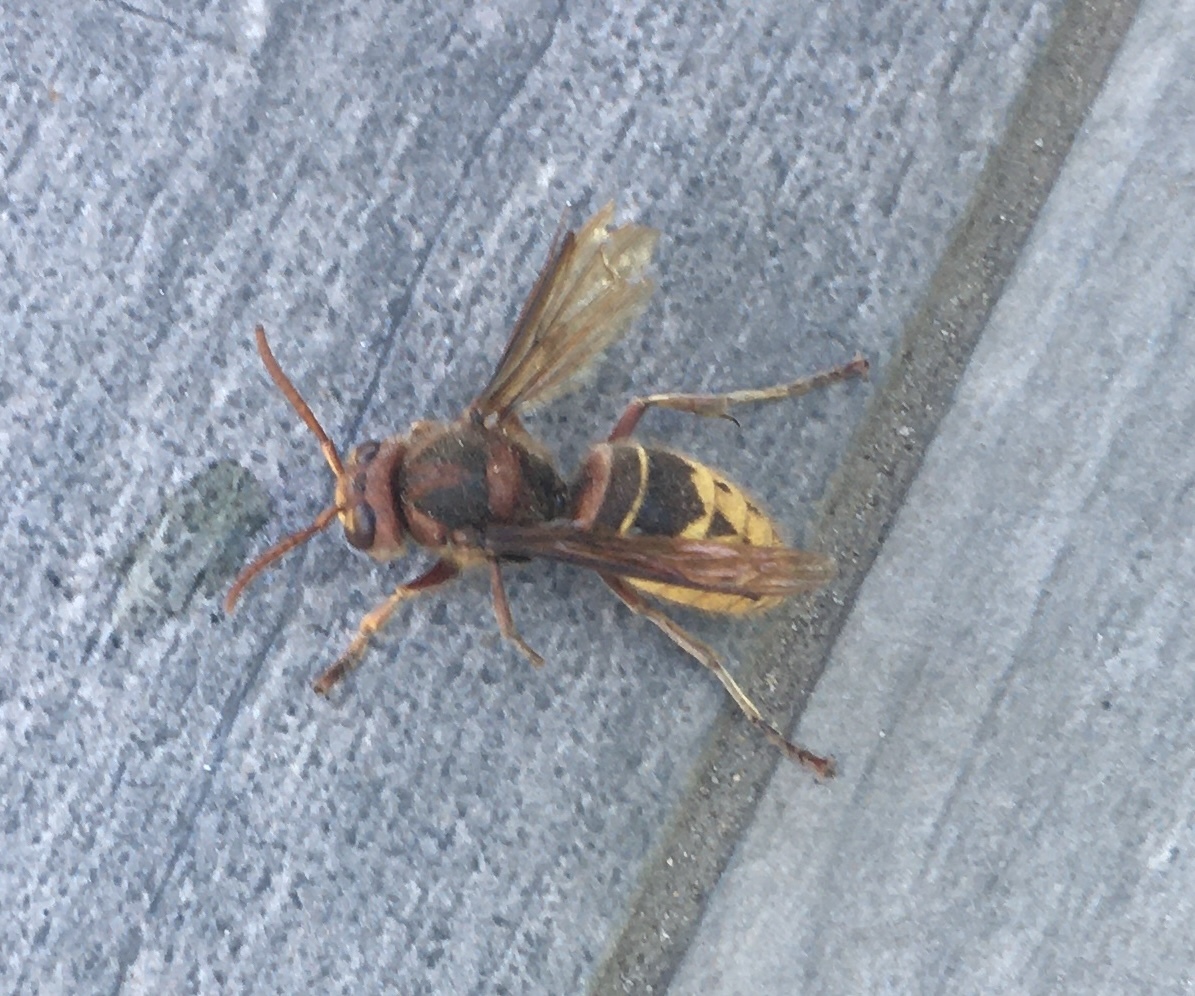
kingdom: Animalia
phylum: Arthropoda
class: Insecta
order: Hymenoptera
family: Vespidae
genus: Vespa
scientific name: Vespa crabro
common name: Hornet
